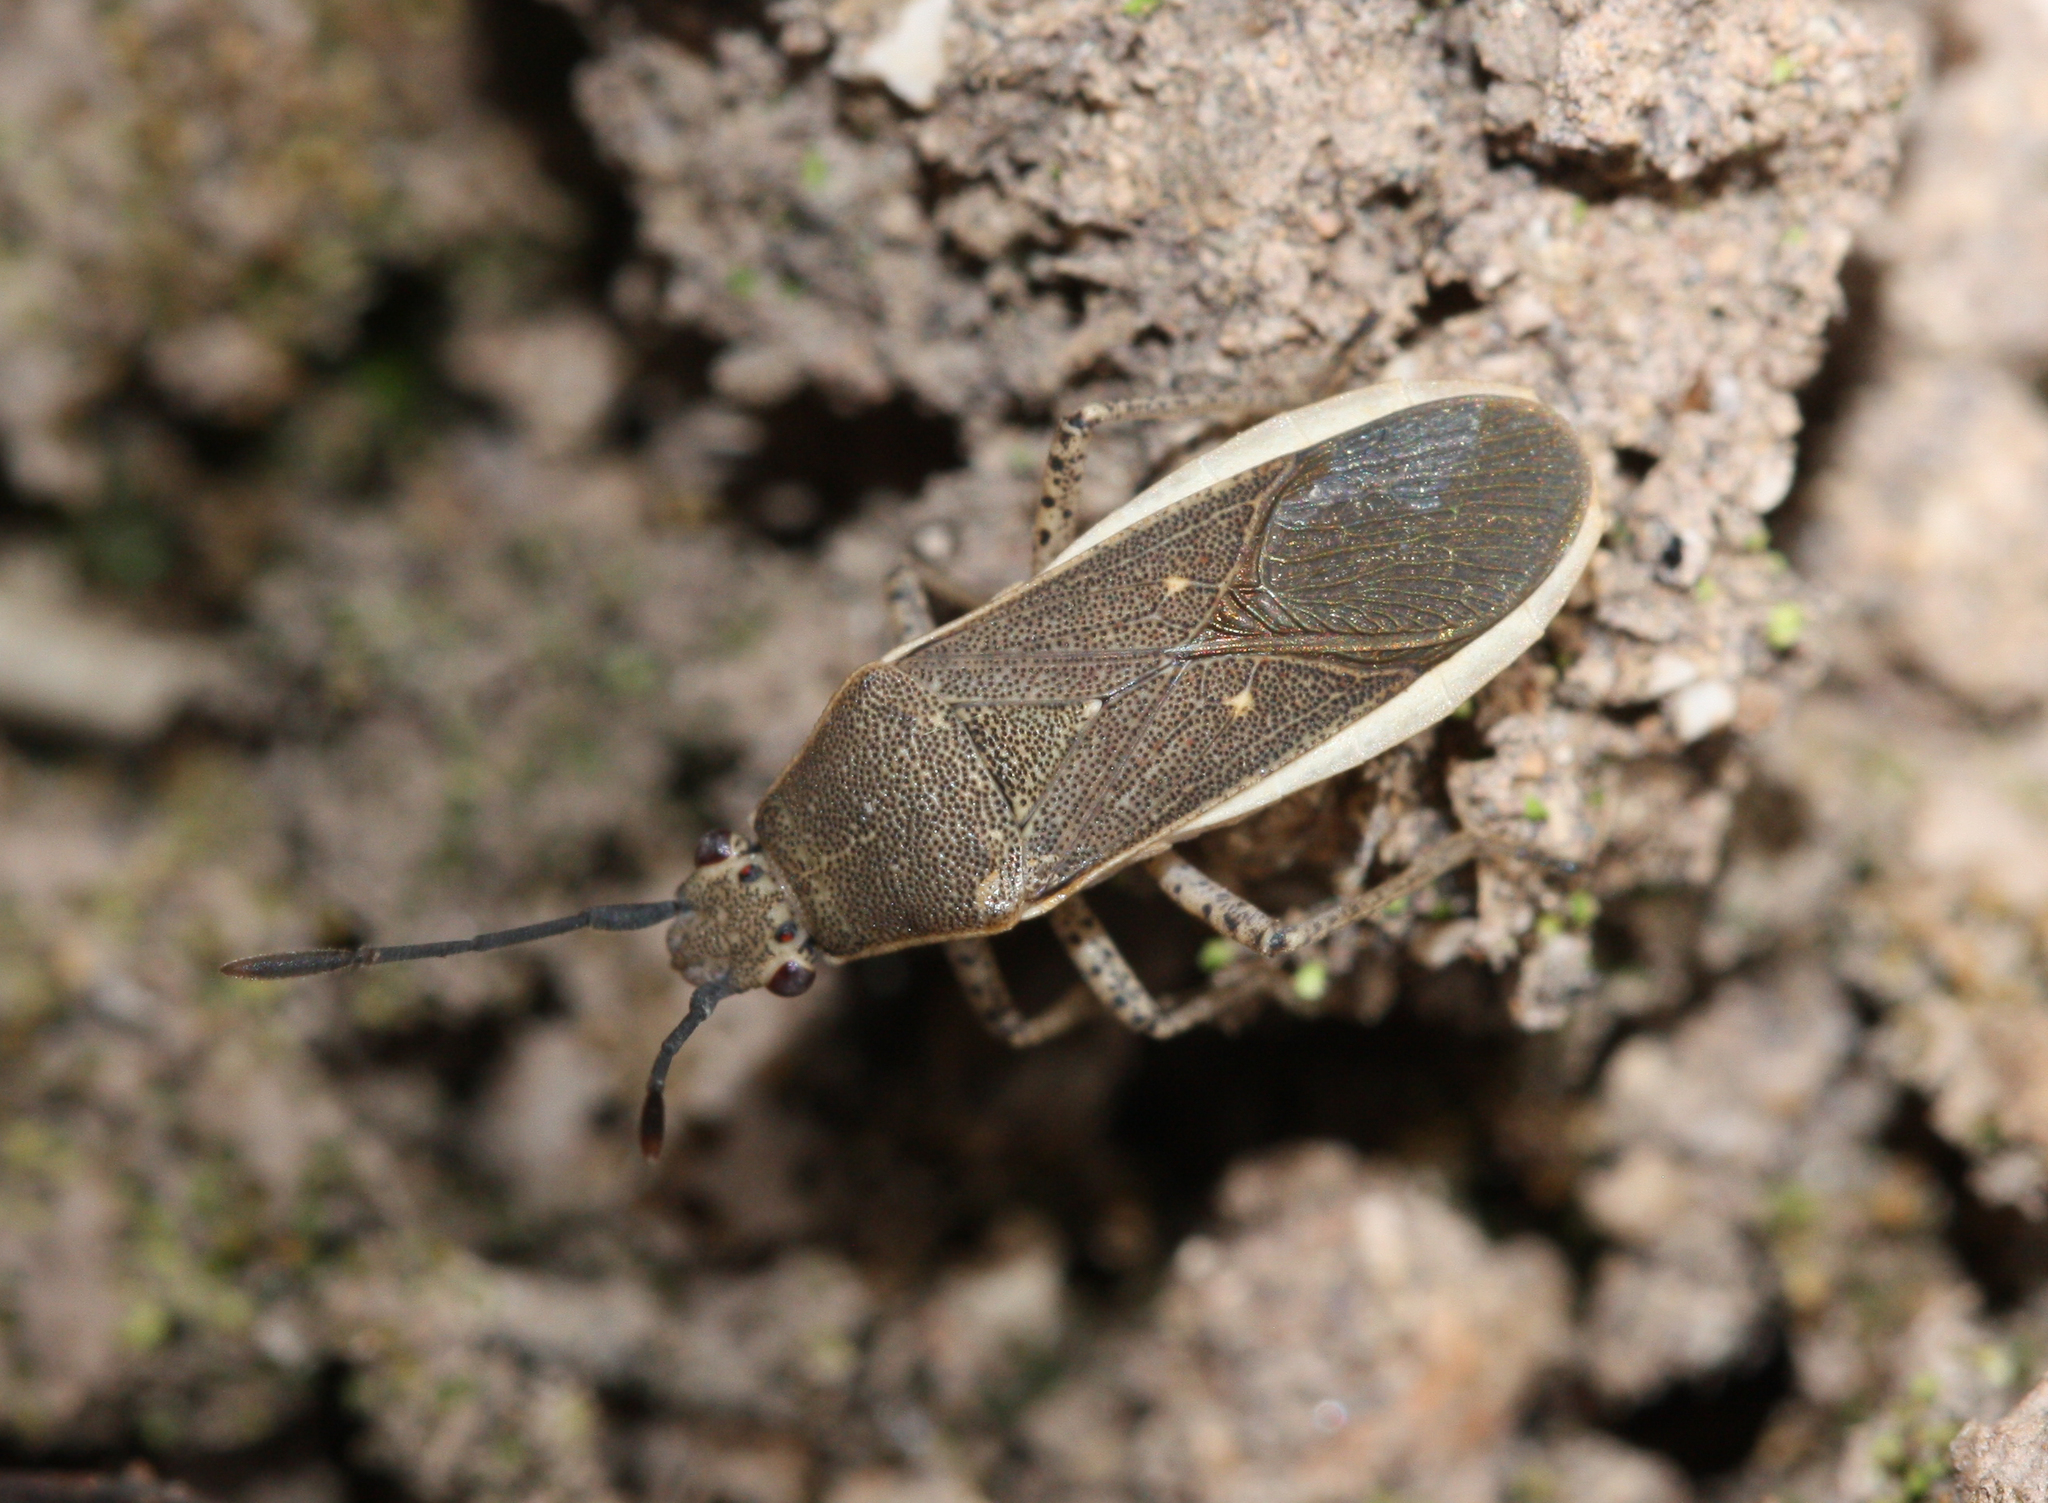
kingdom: Animalia
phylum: Arthropoda
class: Insecta
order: Hemiptera
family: Coreidae
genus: Catorhintha
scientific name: Catorhintha selector
